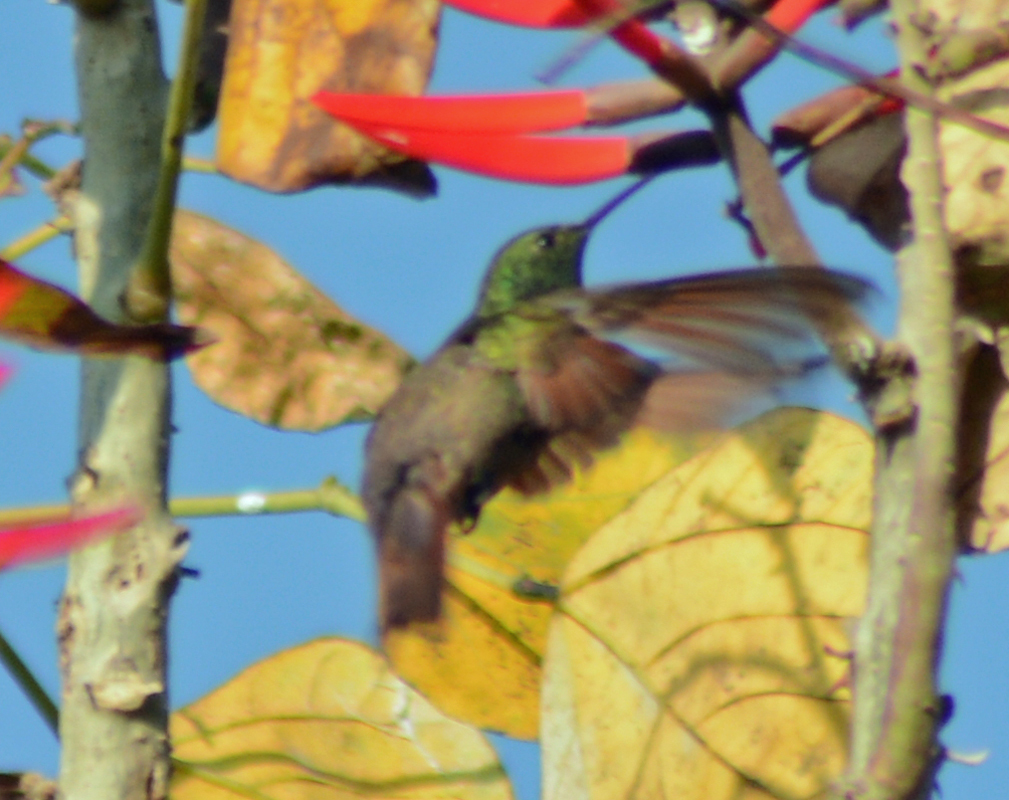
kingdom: Animalia
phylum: Chordata
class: Aves
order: Apodiformes
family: Trochilidae
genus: Saucerottia
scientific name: Saucerottia beryllina
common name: Berylline hummingbird
